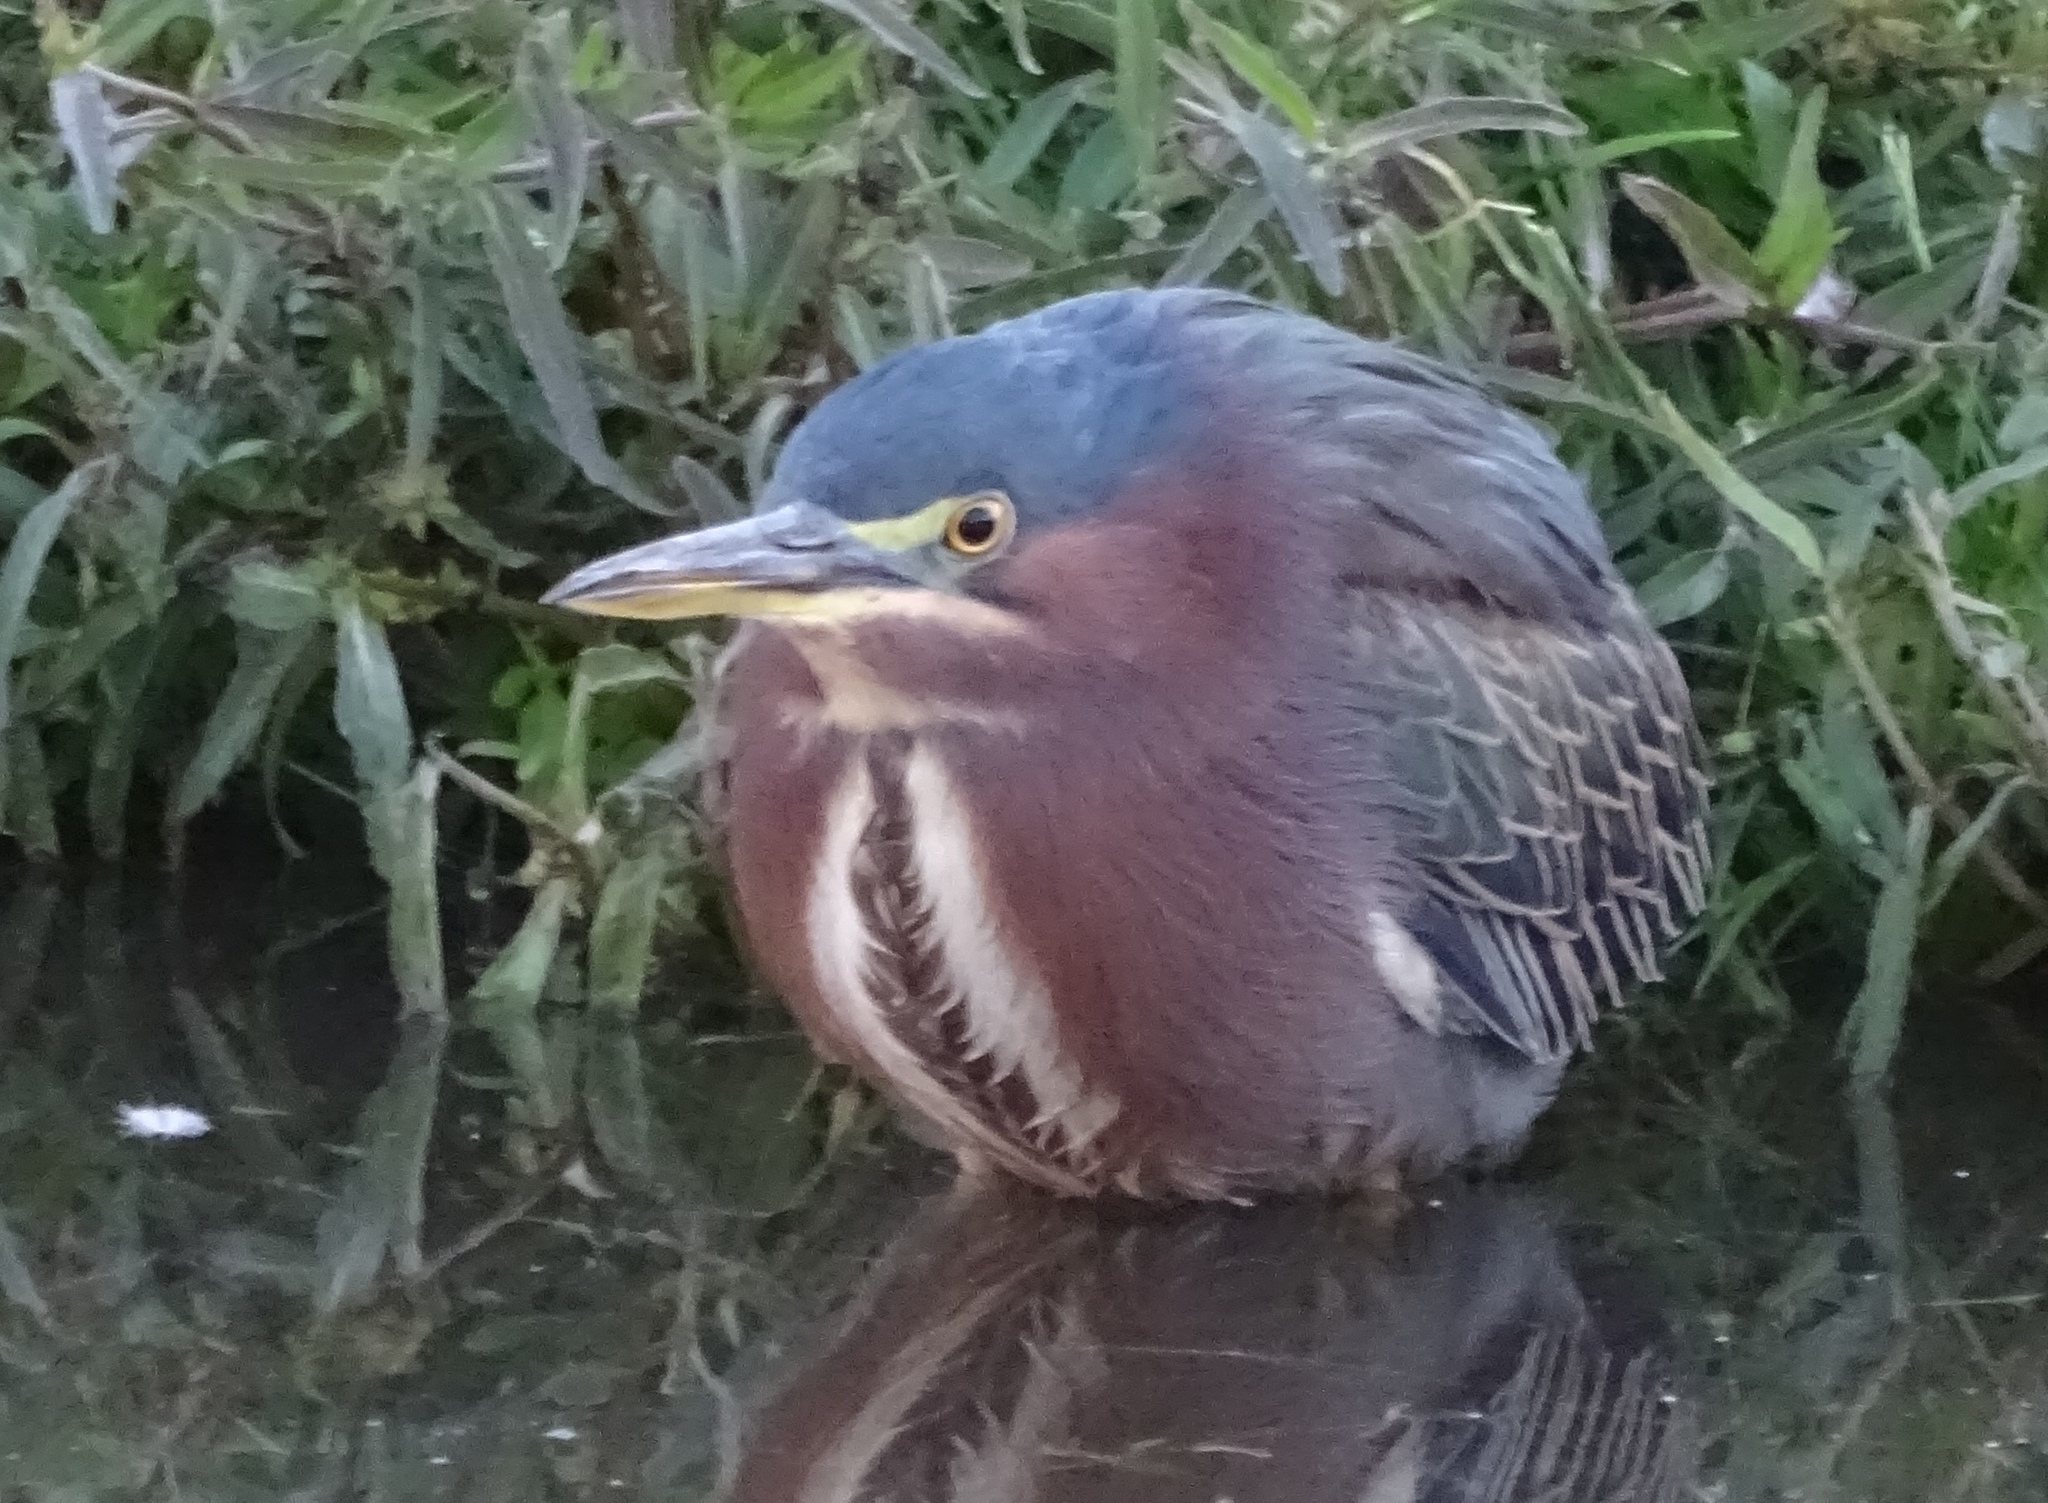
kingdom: Animalia
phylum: Chordata
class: Aves
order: Pelecaniformes
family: Ardeidae
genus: Butorides
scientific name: Butorides virescens
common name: Green heron
